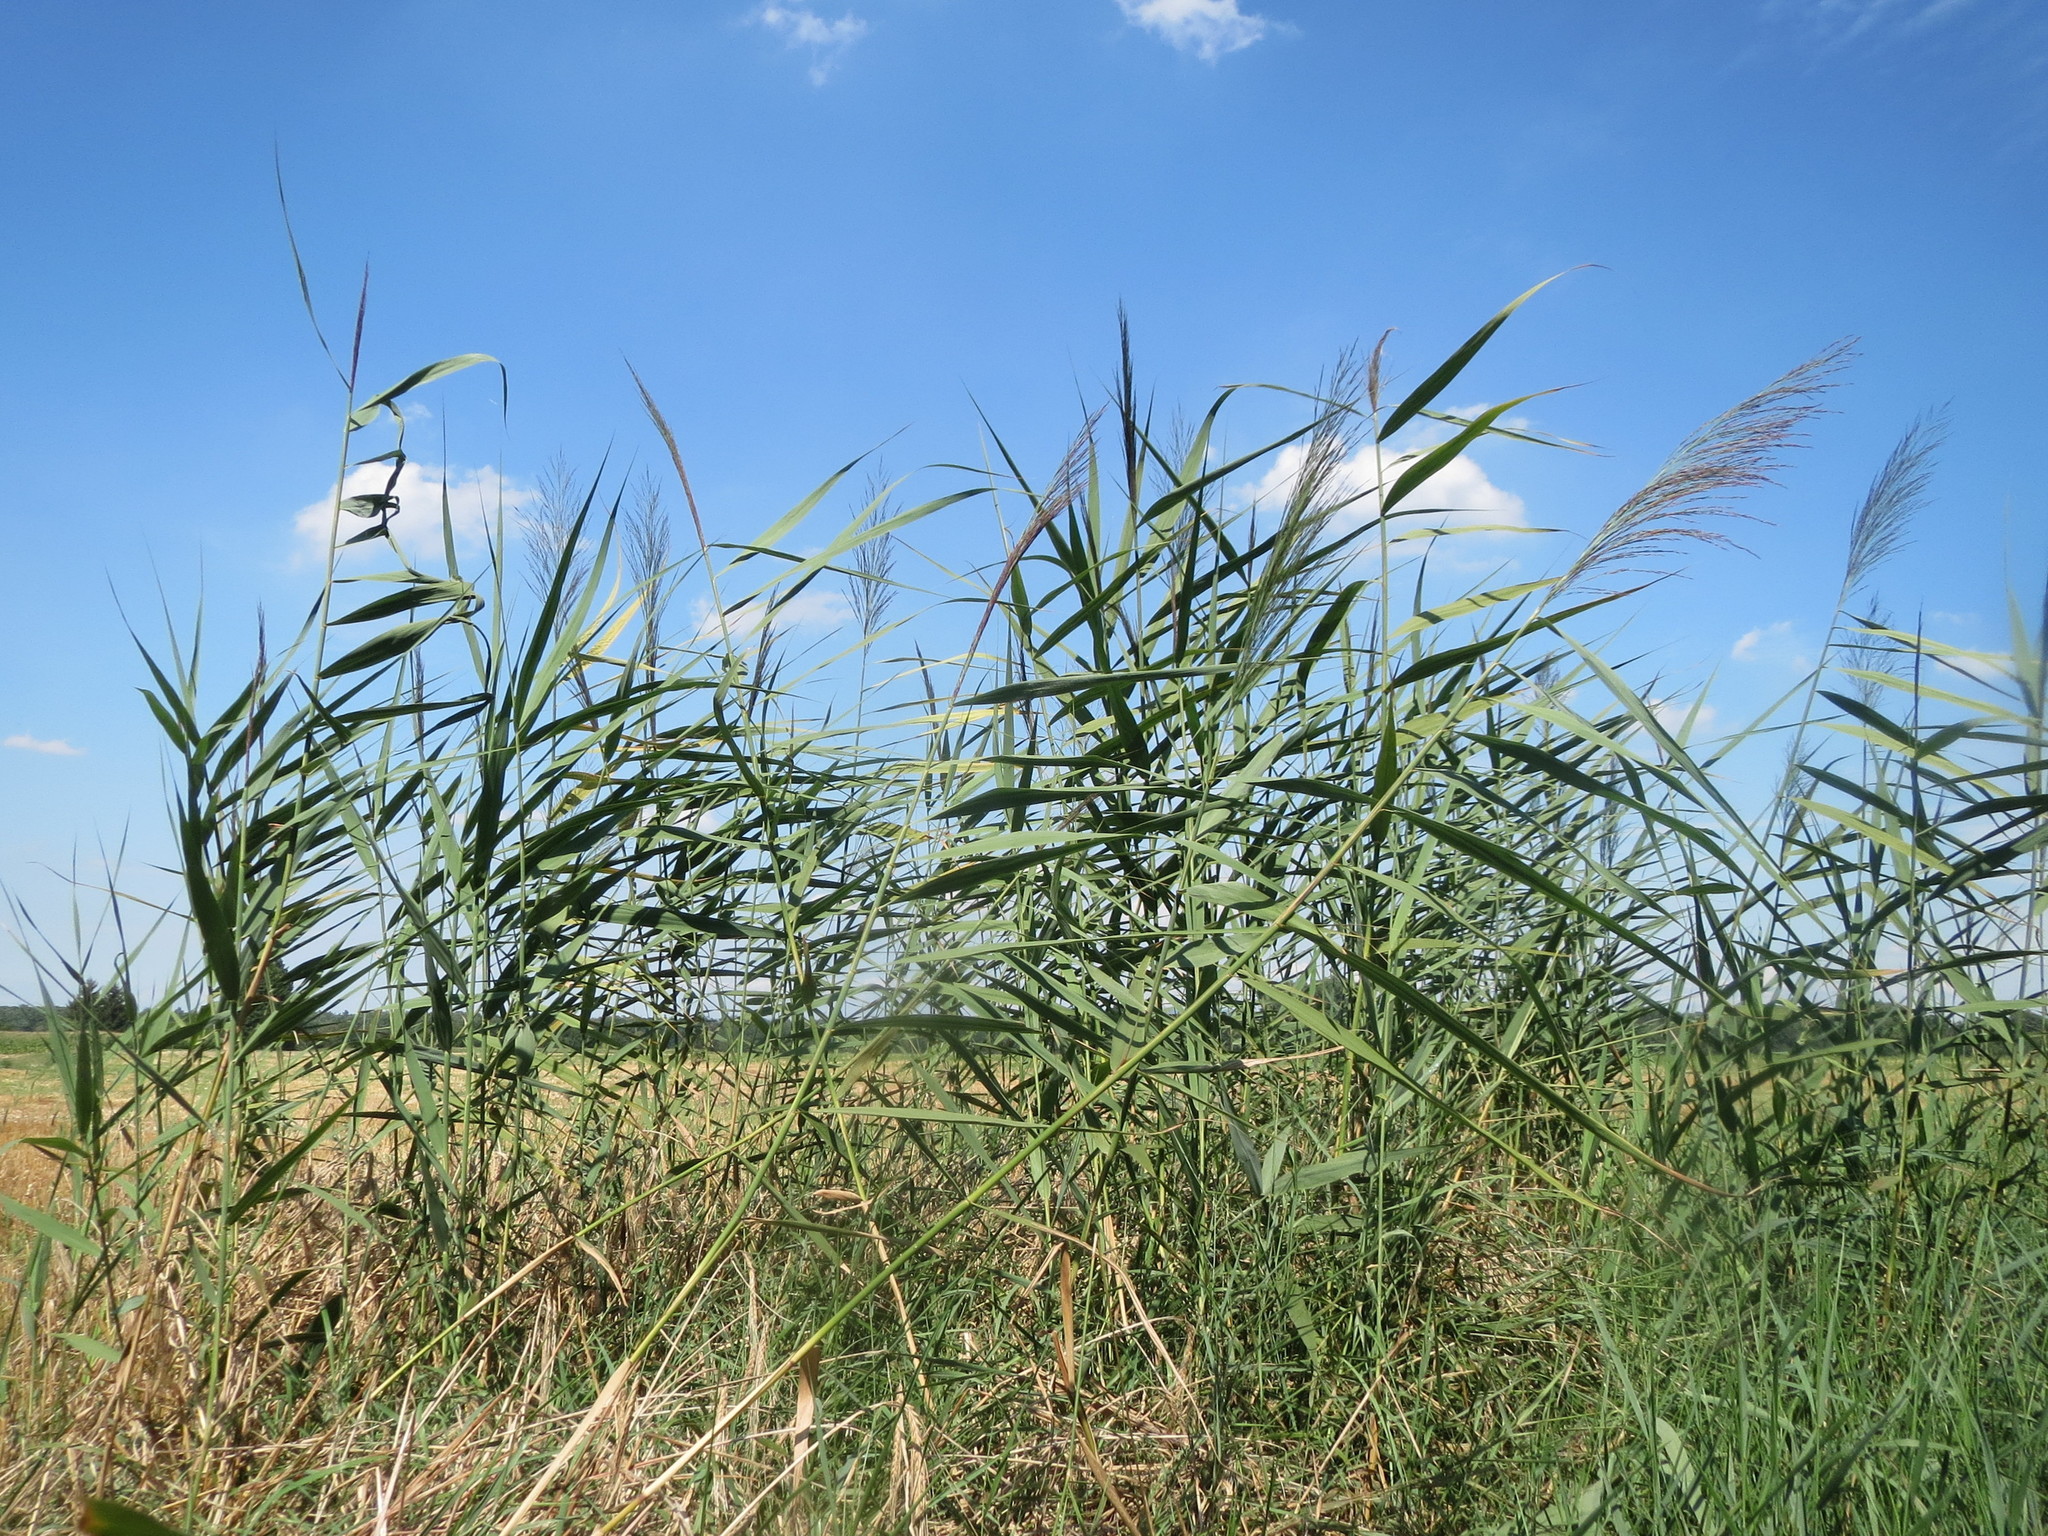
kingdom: Plantae
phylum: Tracheophyta
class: Liliopsida
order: Poales
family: Poaceae
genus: Phragmites
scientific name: Phragmites australis
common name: Common reed
